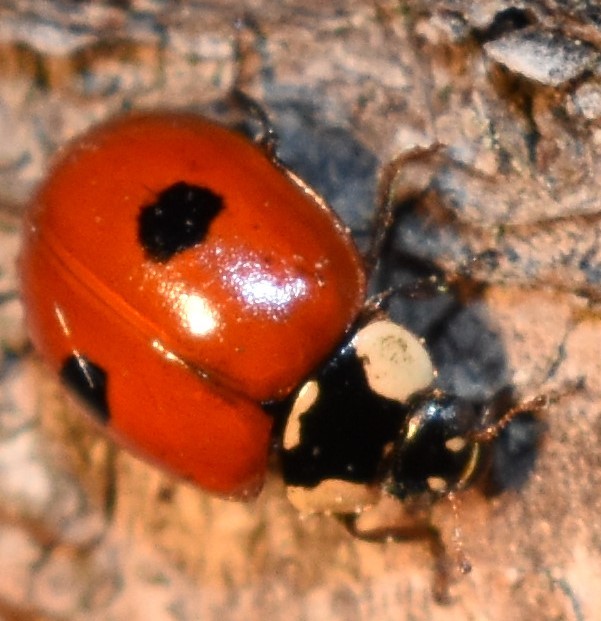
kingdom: Animalia
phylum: Arthropoda
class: Insecta
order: Coleoptera
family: Coccinellidae
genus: Adalia
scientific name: Adalia bipunctata
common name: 2-spot ladybird
